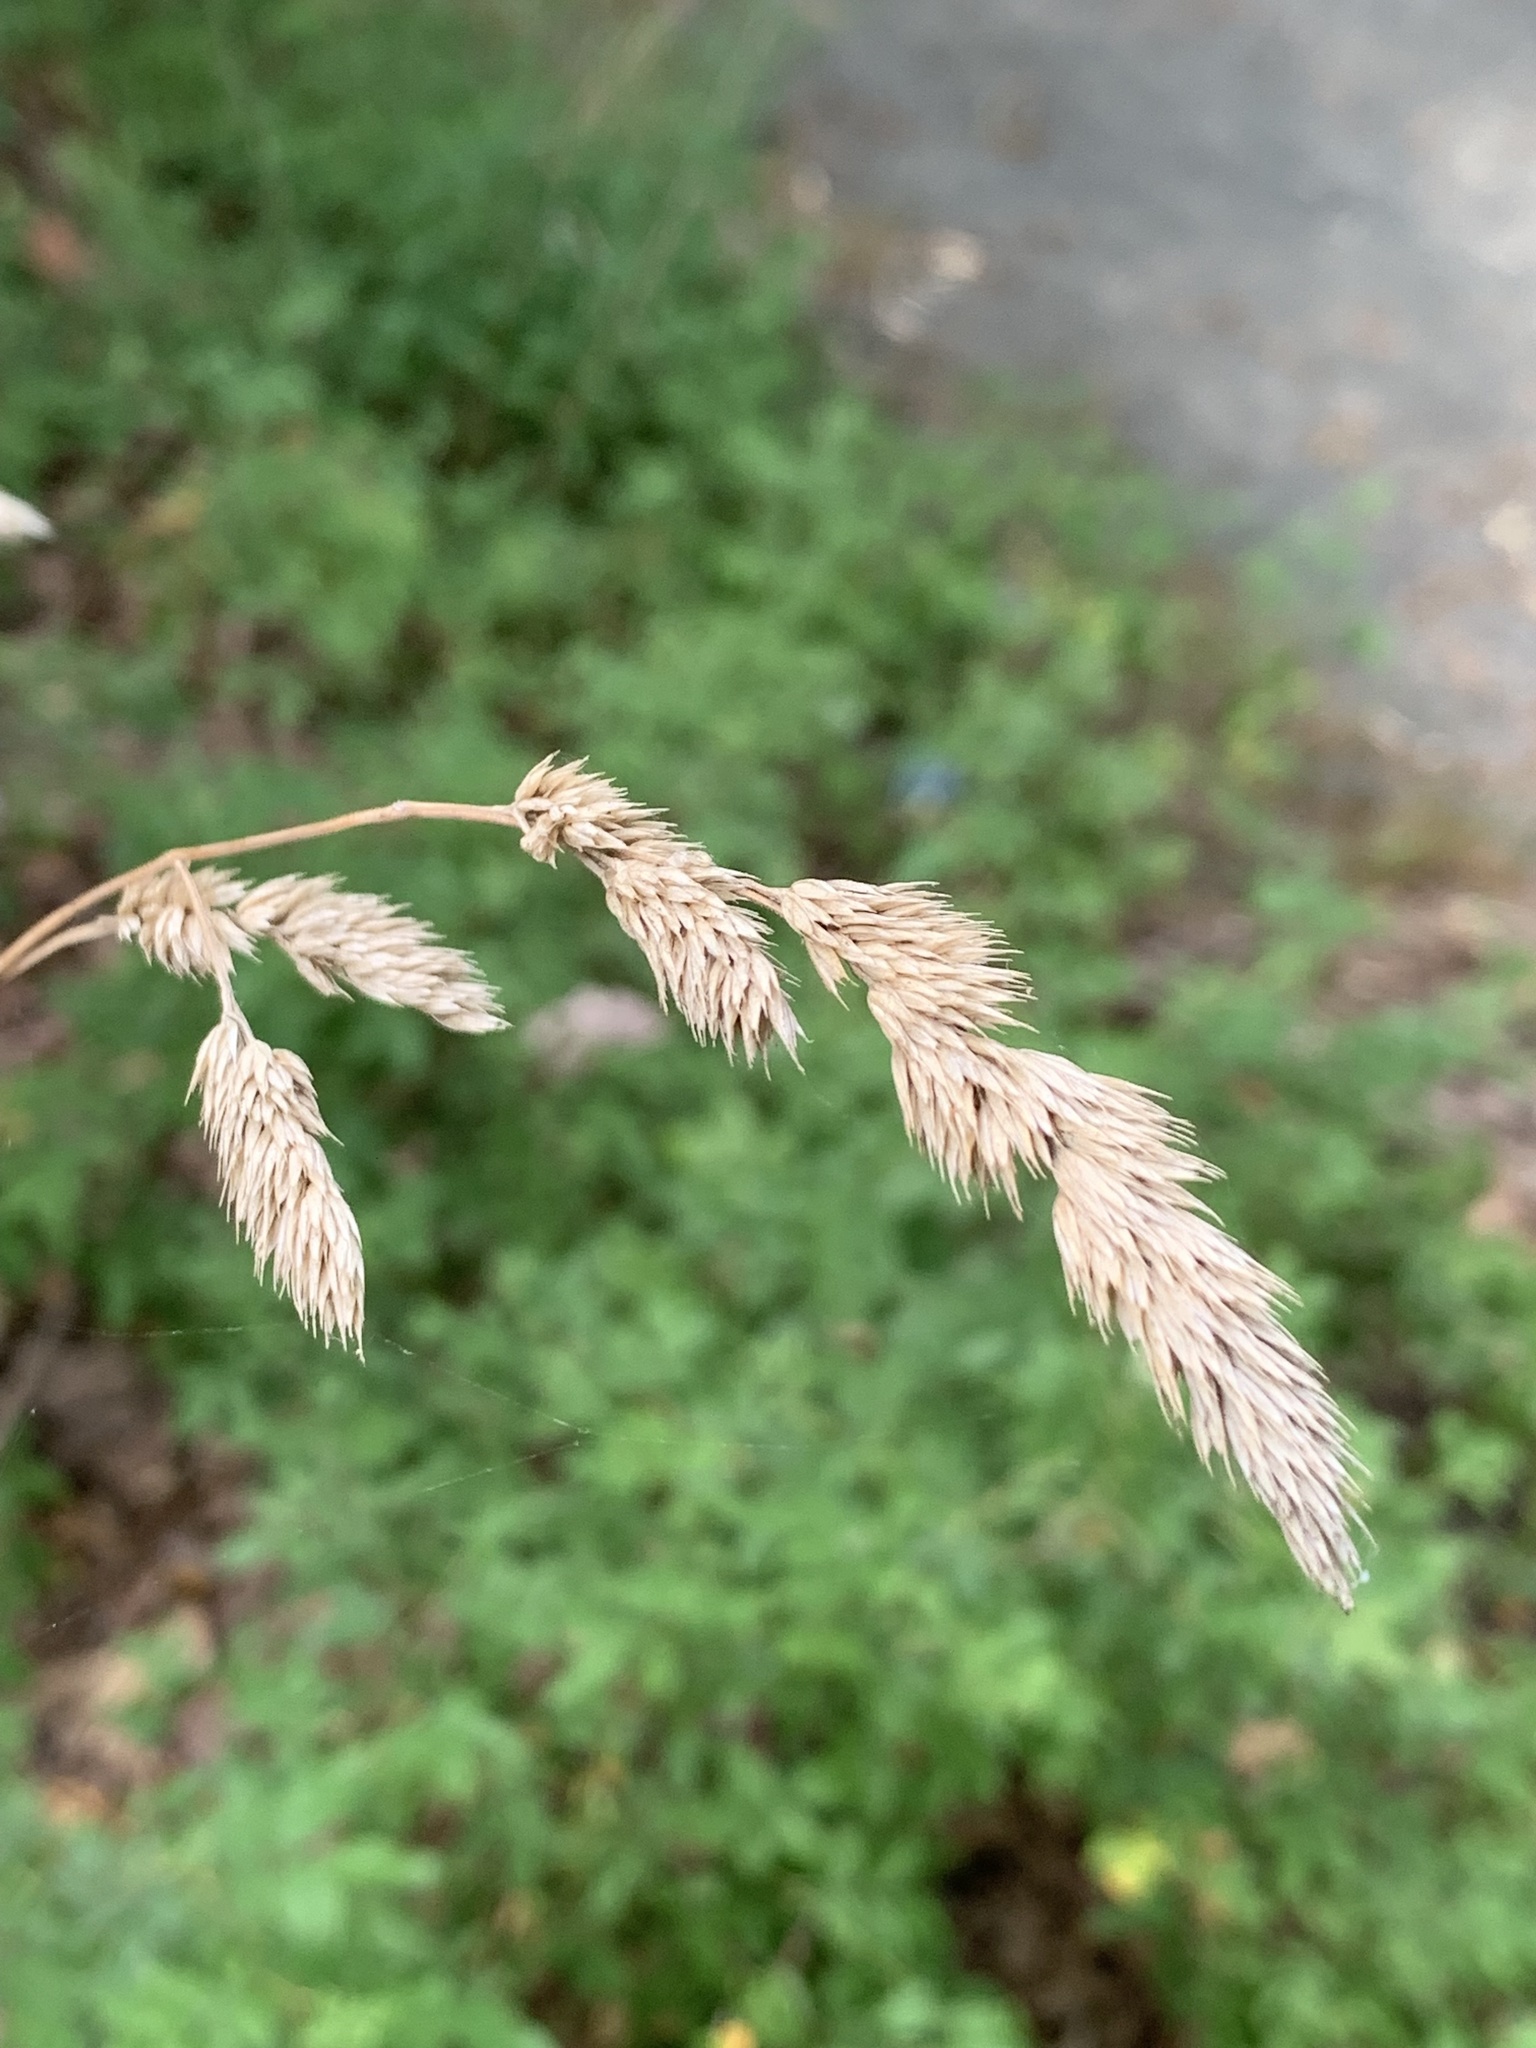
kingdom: Plantae
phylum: Tracheophyta
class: Liliopsida
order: Poales
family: Poaceae
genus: Dactylis
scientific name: Dactylis glomerata
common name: Orchardgrass
